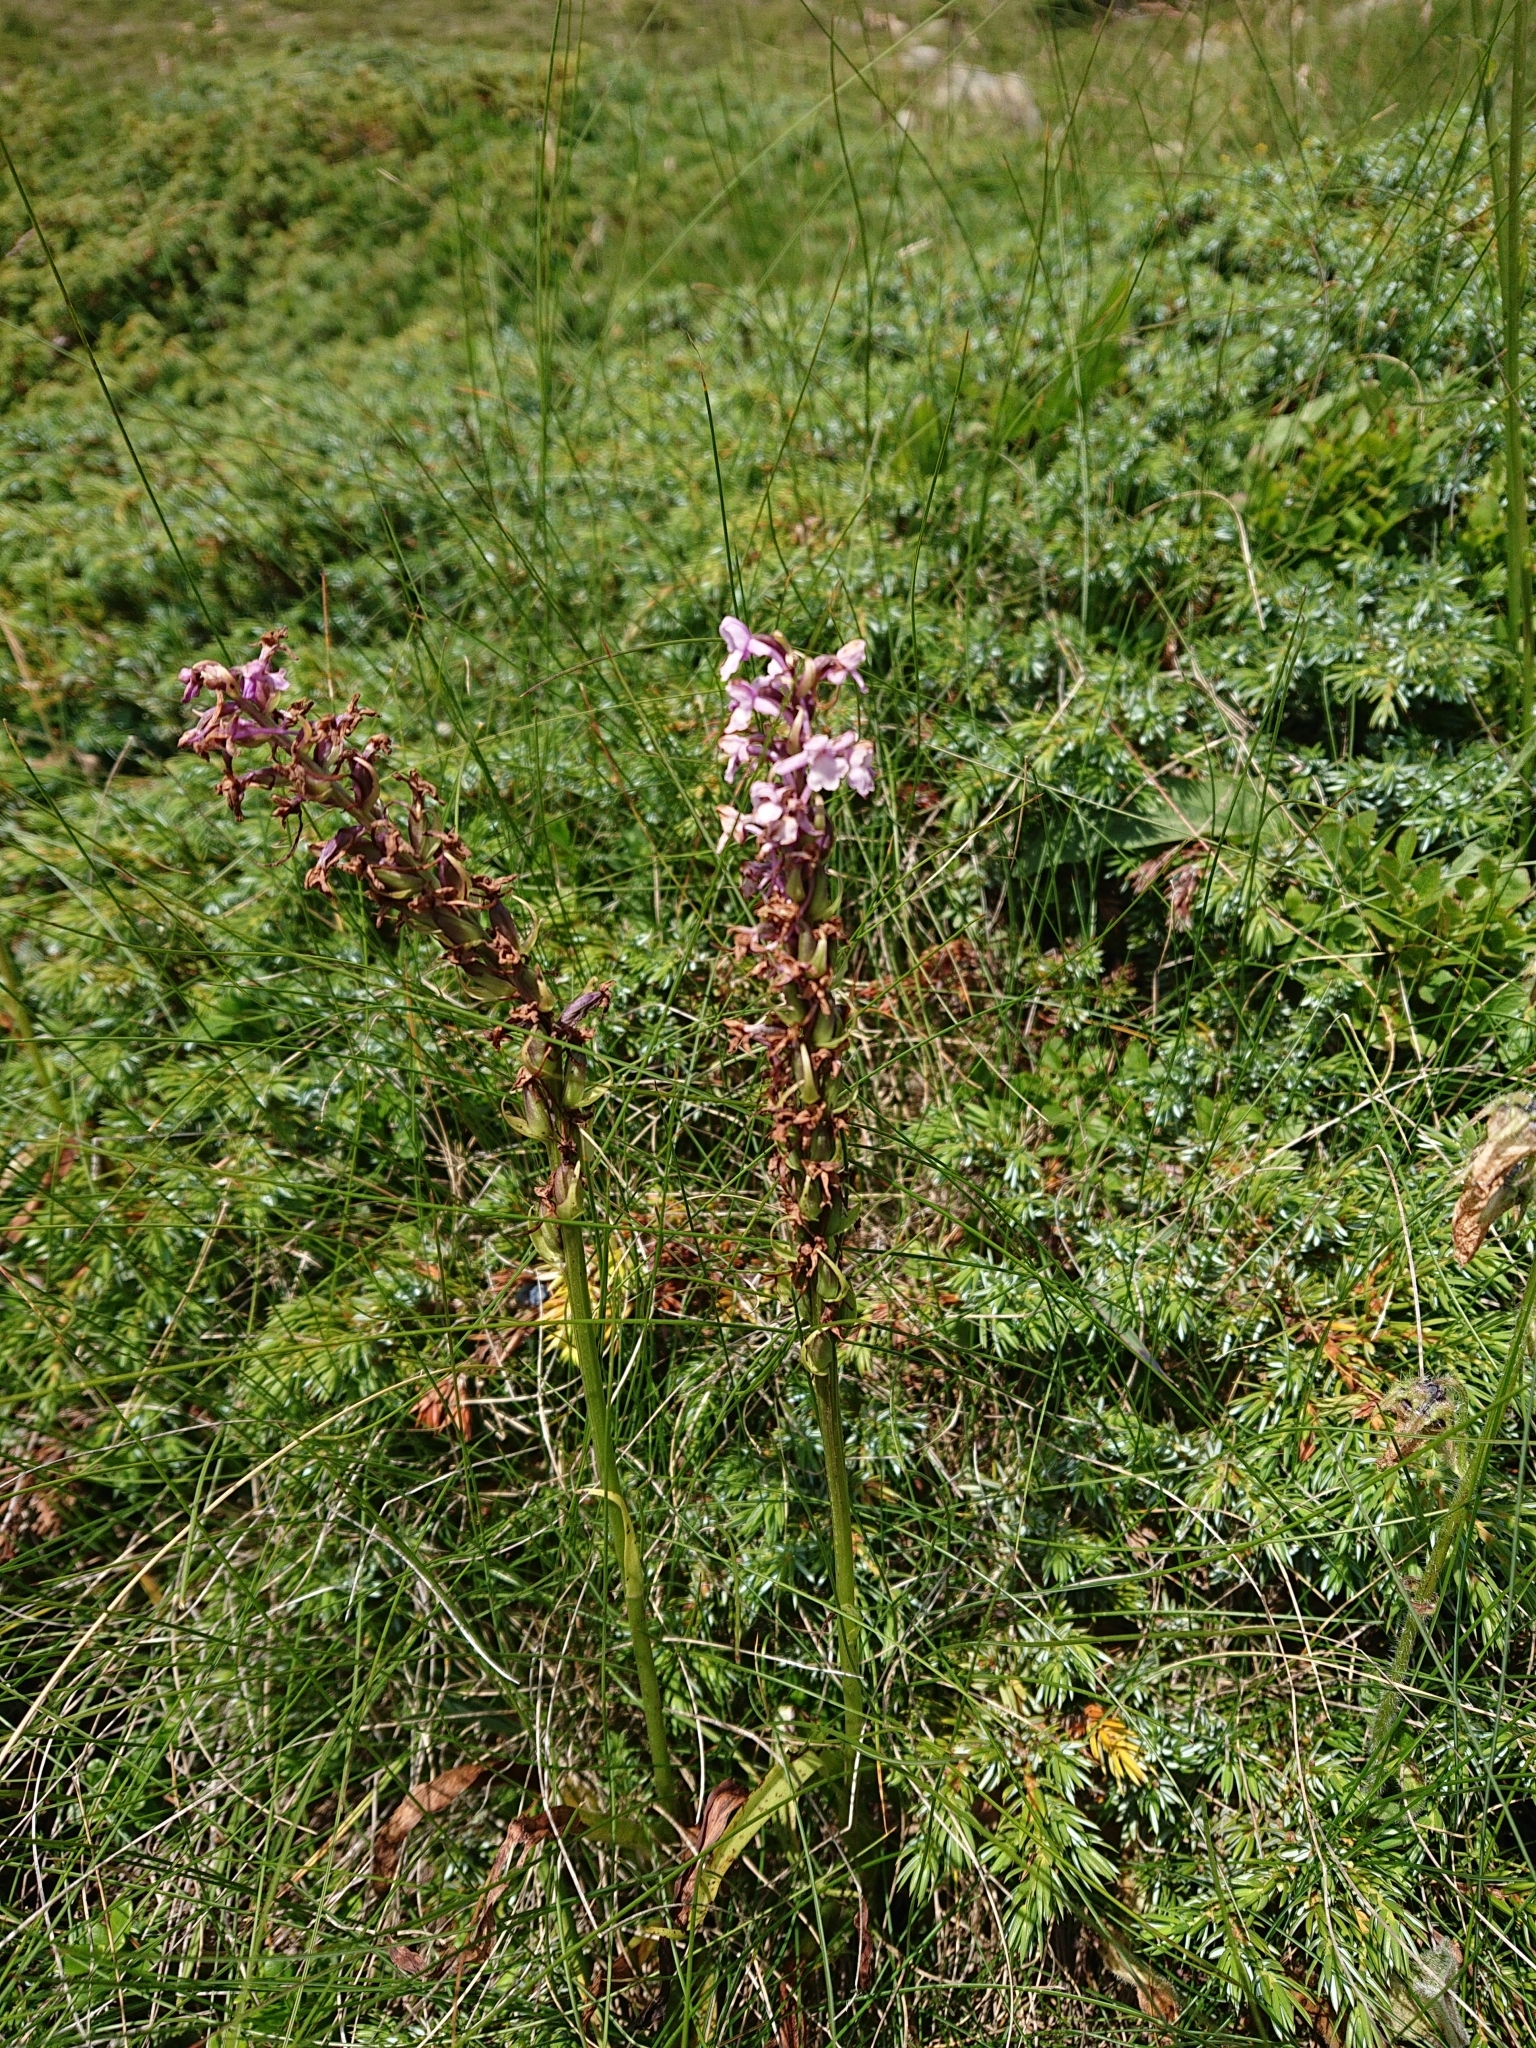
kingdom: Plantae
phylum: Tracheophyta
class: Liliopsida
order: Asparagales
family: Orchidaceae
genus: Gymnadenia
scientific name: Gymnadenia conopsea
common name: Fragrant orchid
